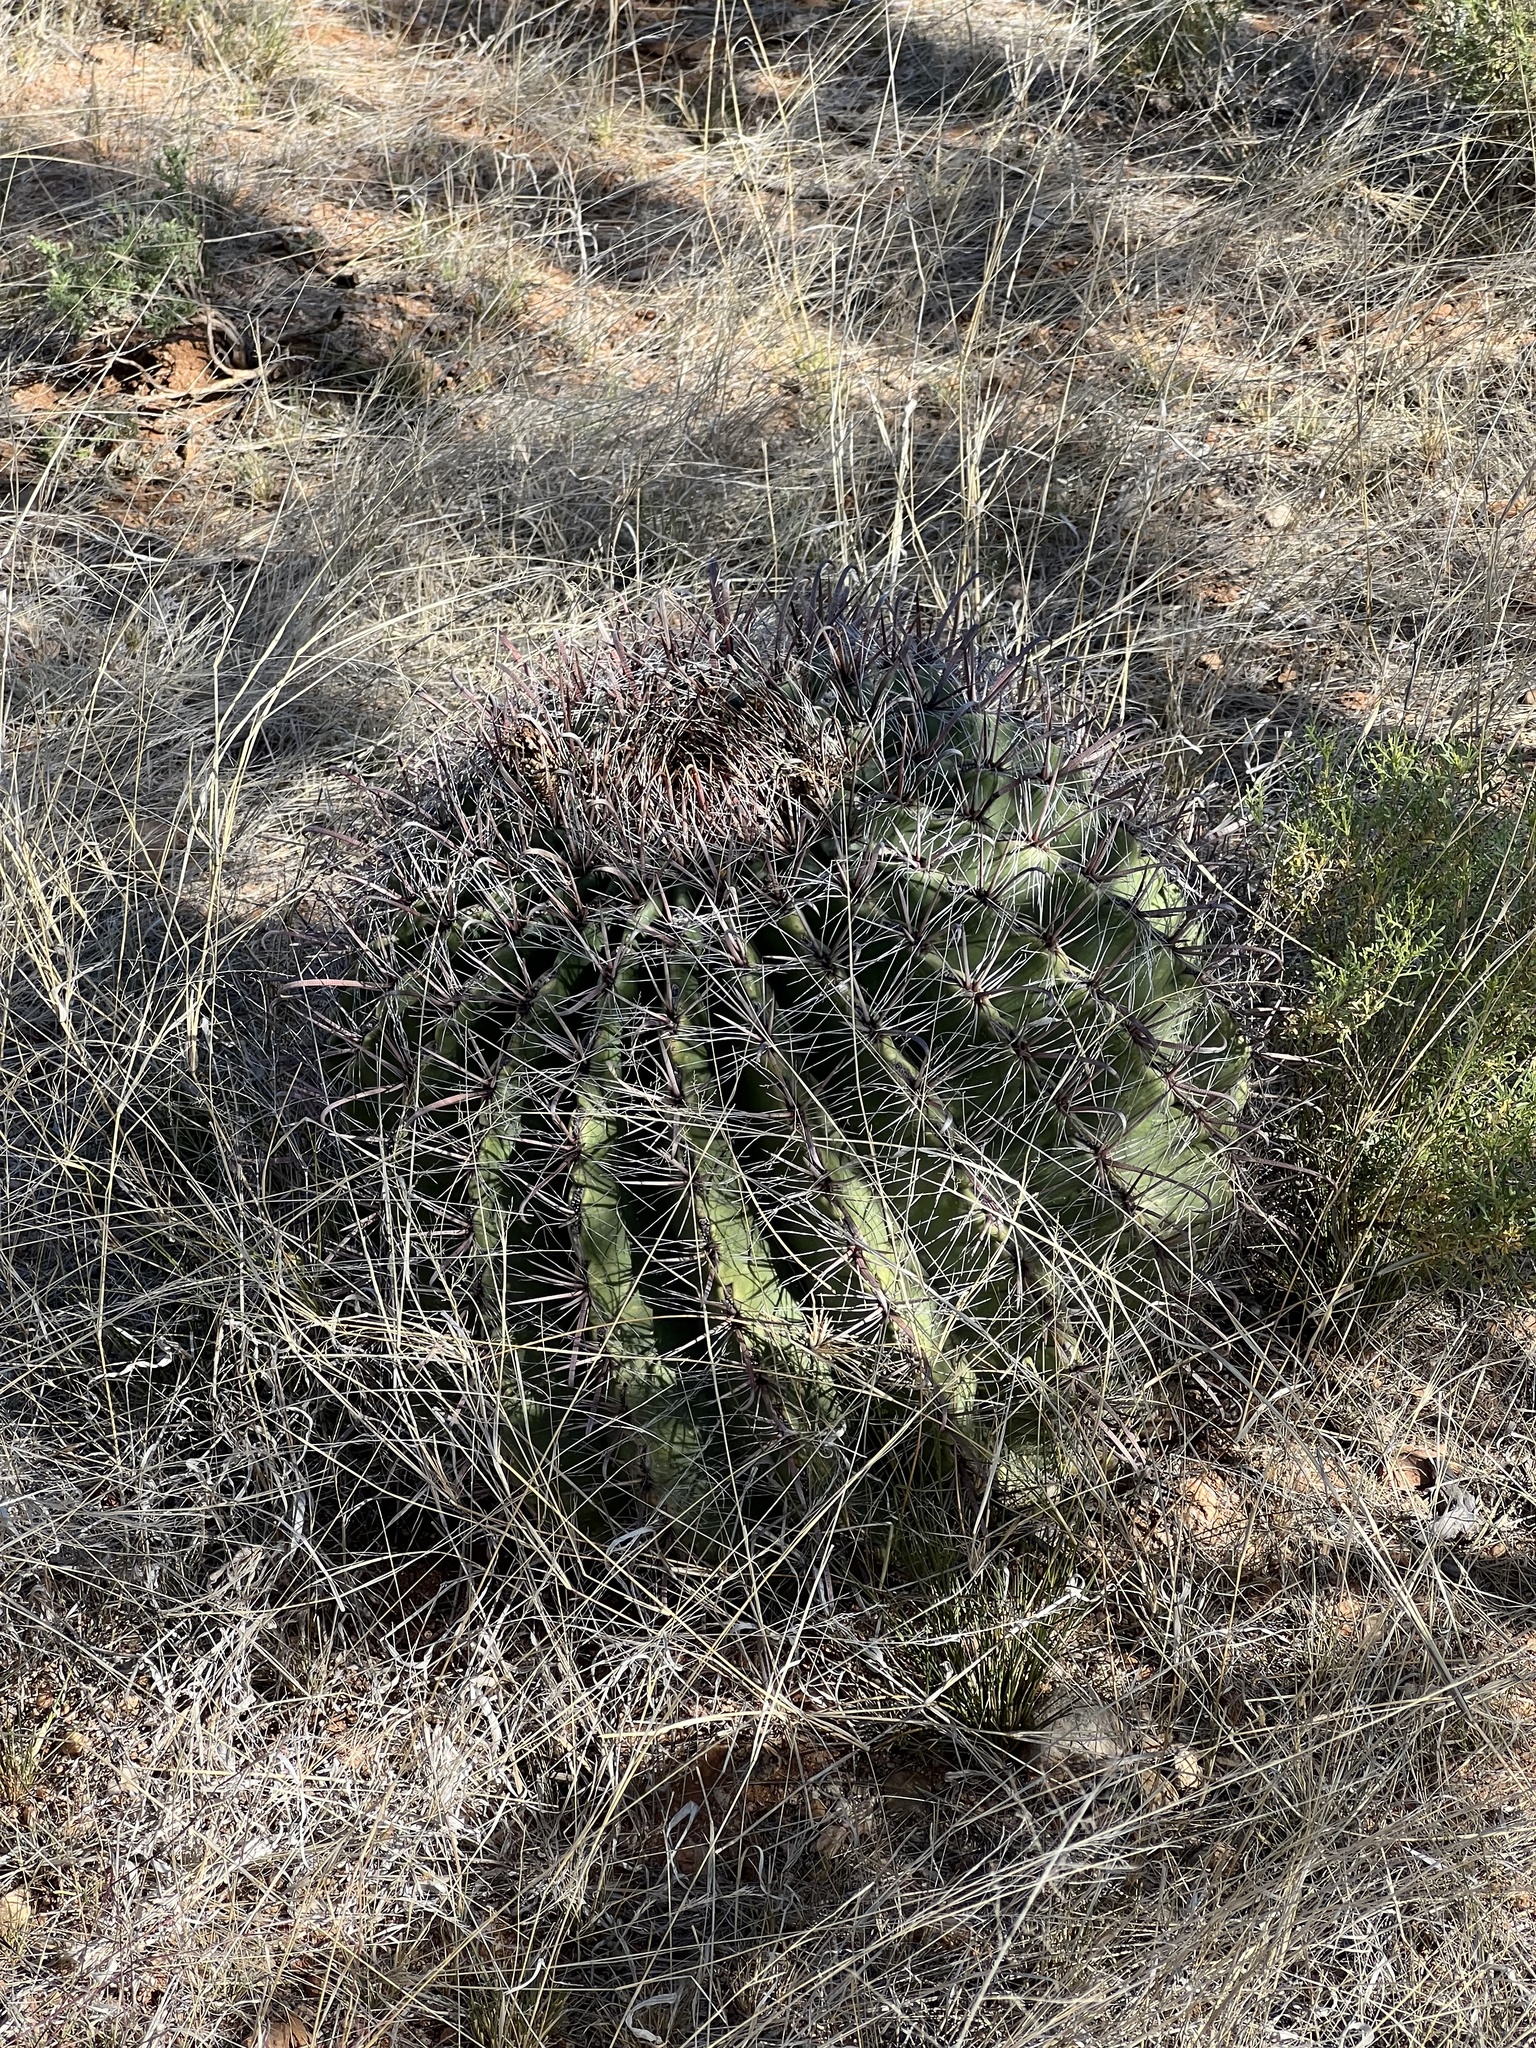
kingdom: Plantae
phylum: Tracheophyta
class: Magnoliopsida
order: Caryophyllales
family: Cactaceae
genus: Ferocactus
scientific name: Ferocactus wislizeni
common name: Candy barrel cactus
